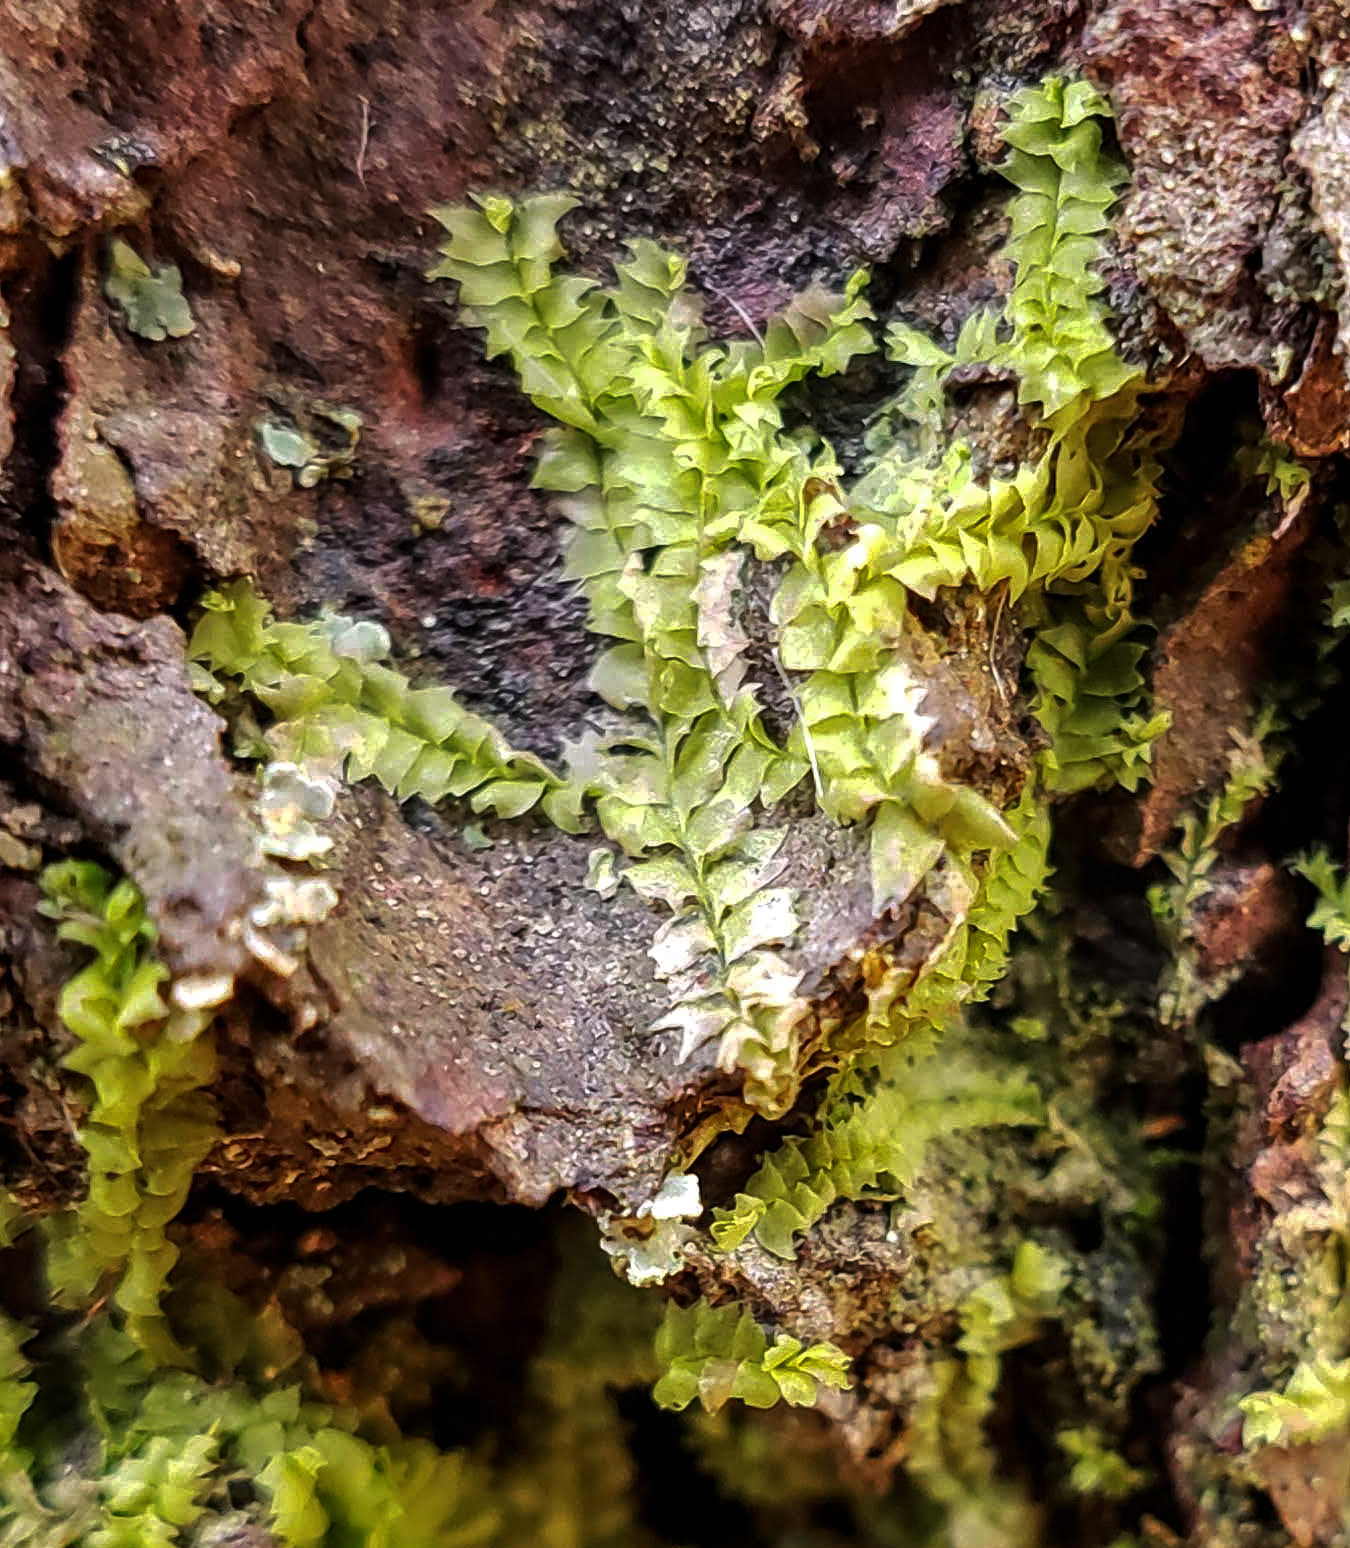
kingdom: Plantae
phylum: Marchantiophyta
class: Jungermanniopsida
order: Jungermanniales
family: Lophocoleaceae
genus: Lophocolea
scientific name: Lophocolea heterophylla
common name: Variable-leaved crestwort
